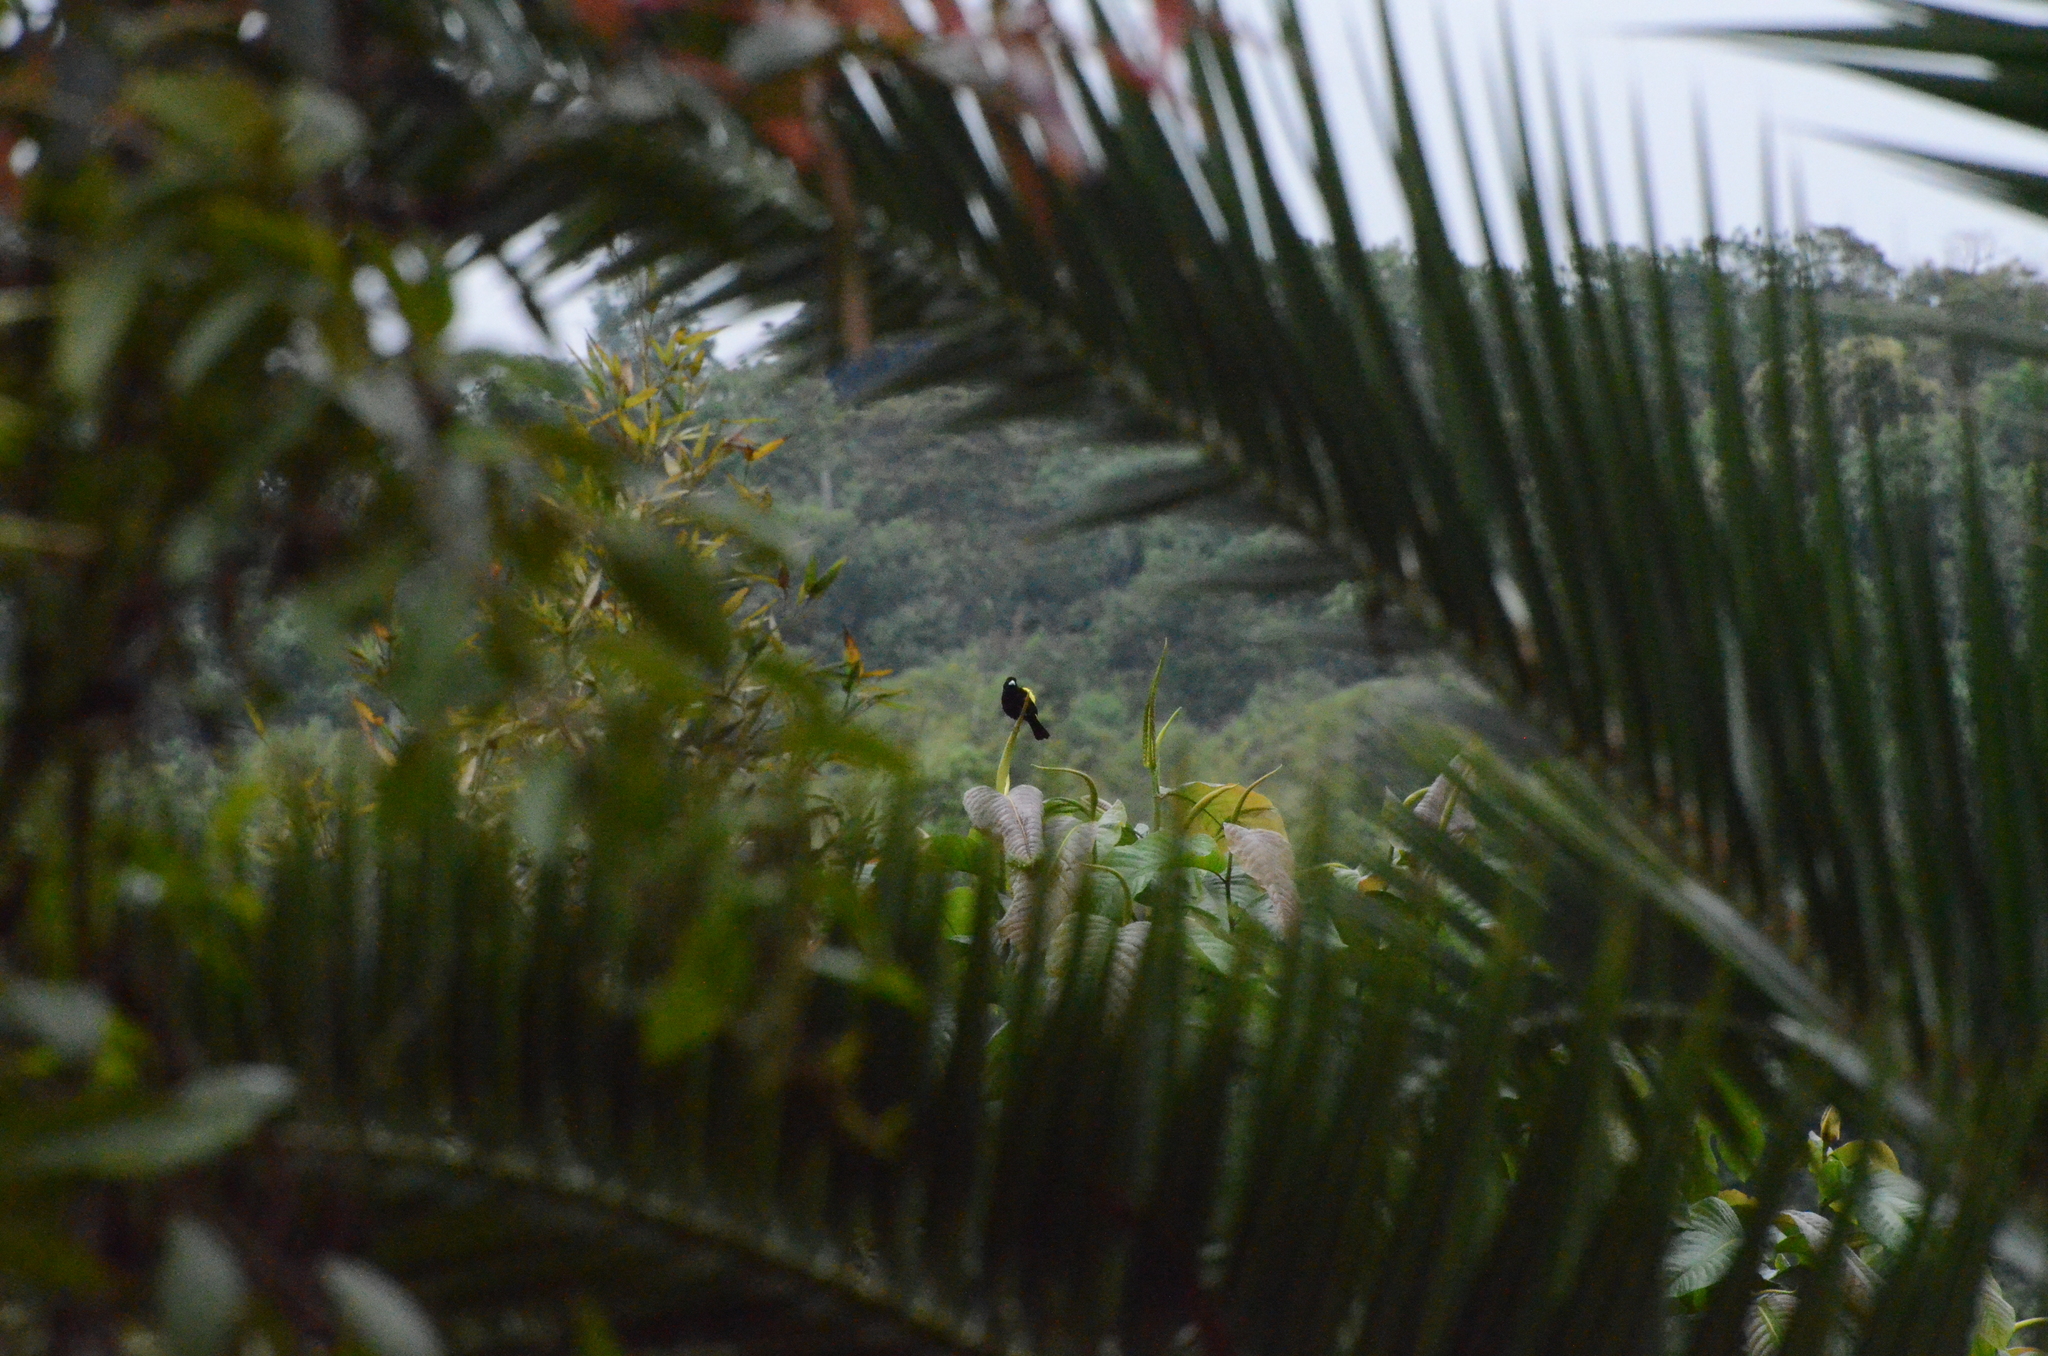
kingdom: Animalia
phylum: Chordata
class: Aves
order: Passeriformes
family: Thraupidae
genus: Ramphocelus
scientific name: Ramphocelus icteronotus
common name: Lemon-rumped tanager
